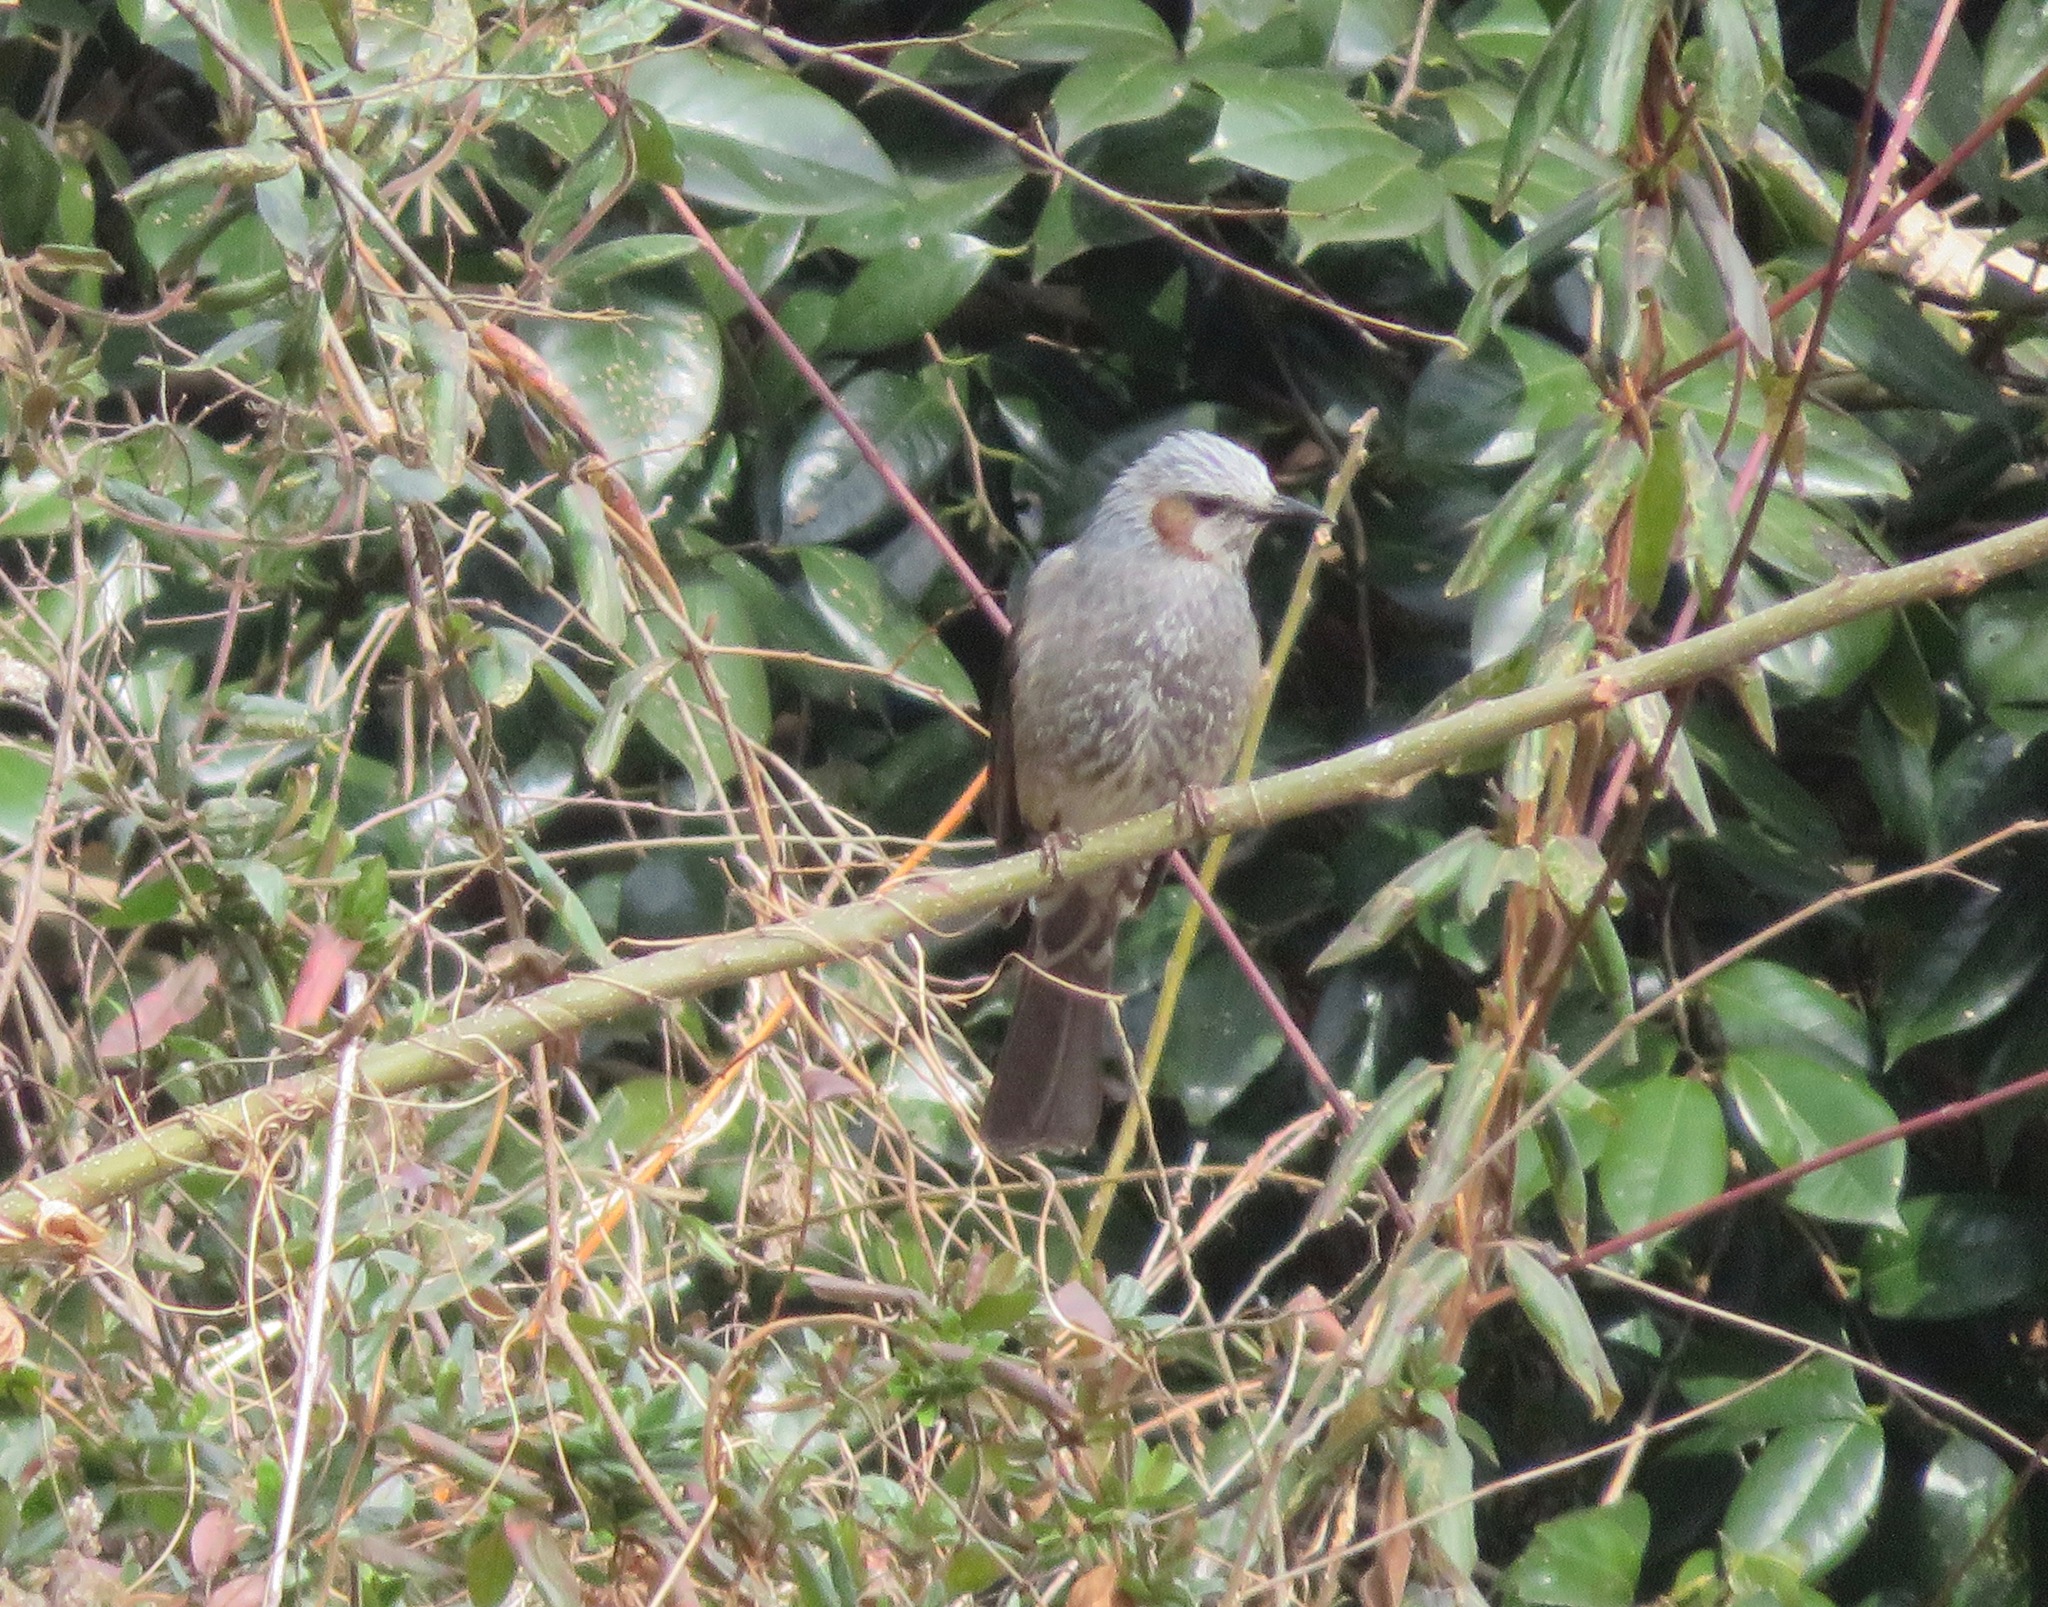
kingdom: Animalia
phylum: Chordata
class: Aves
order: Passeriformes
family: Pycnonotidae
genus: Hypsipetes
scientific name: Hypsipetes amaurotis
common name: Brown-eared bulbul
